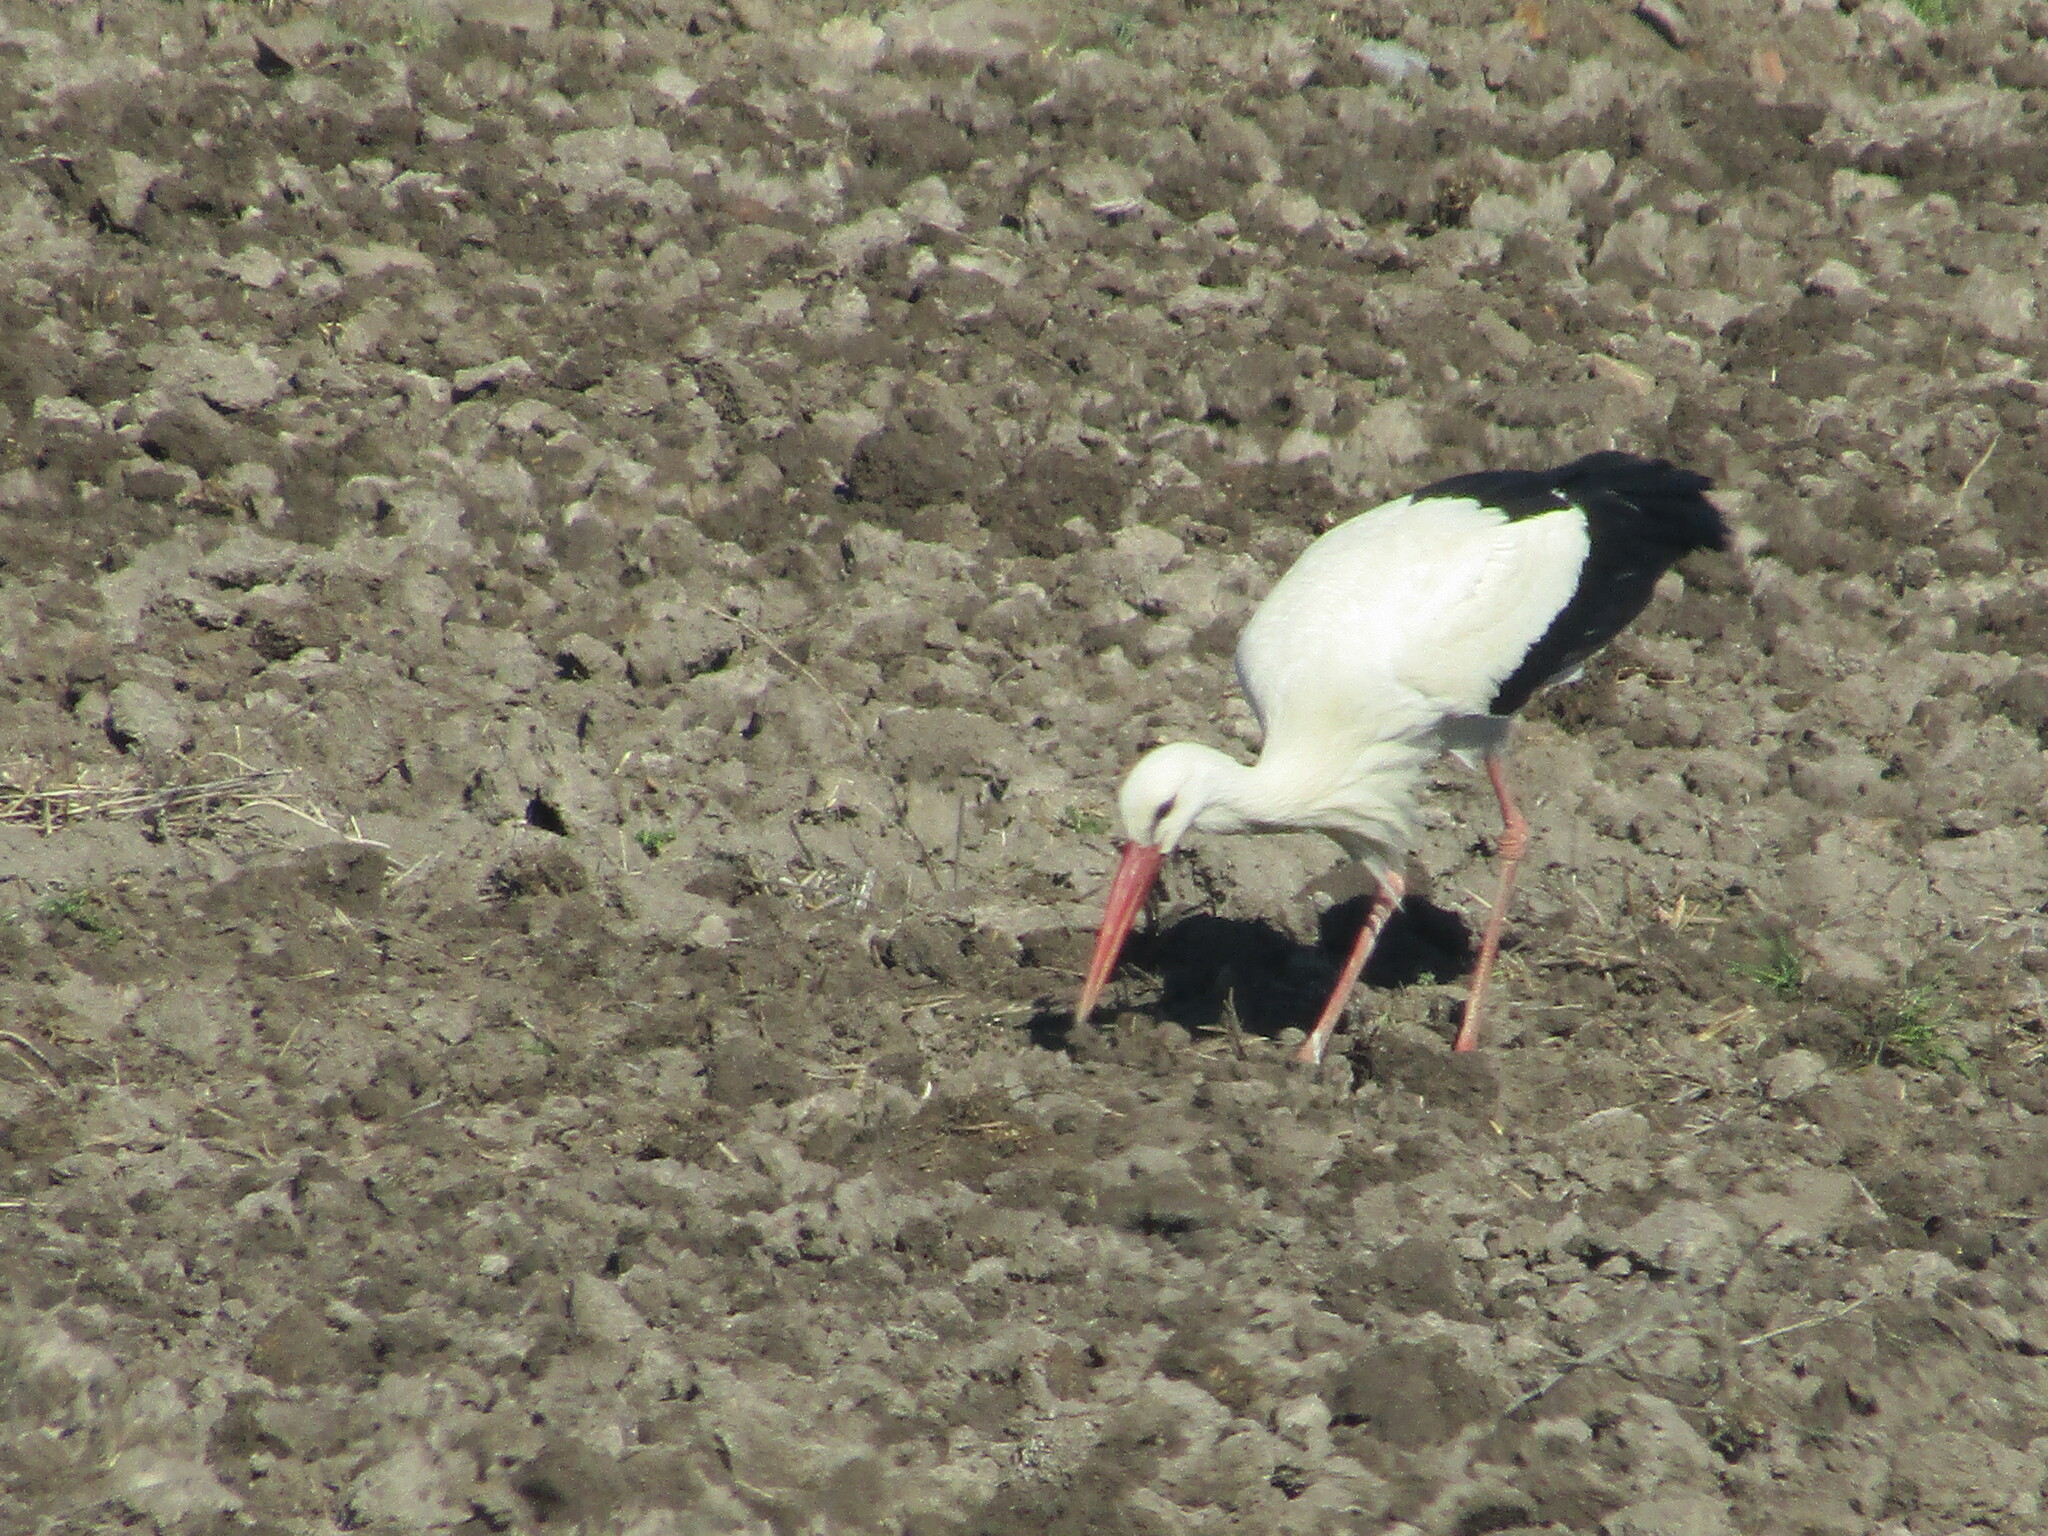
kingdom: Animalia
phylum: Chordata
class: Aves
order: Ciconiiformes
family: Ciconiidae
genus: Ciconia
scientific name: Ciconia ciconia
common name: White stork
